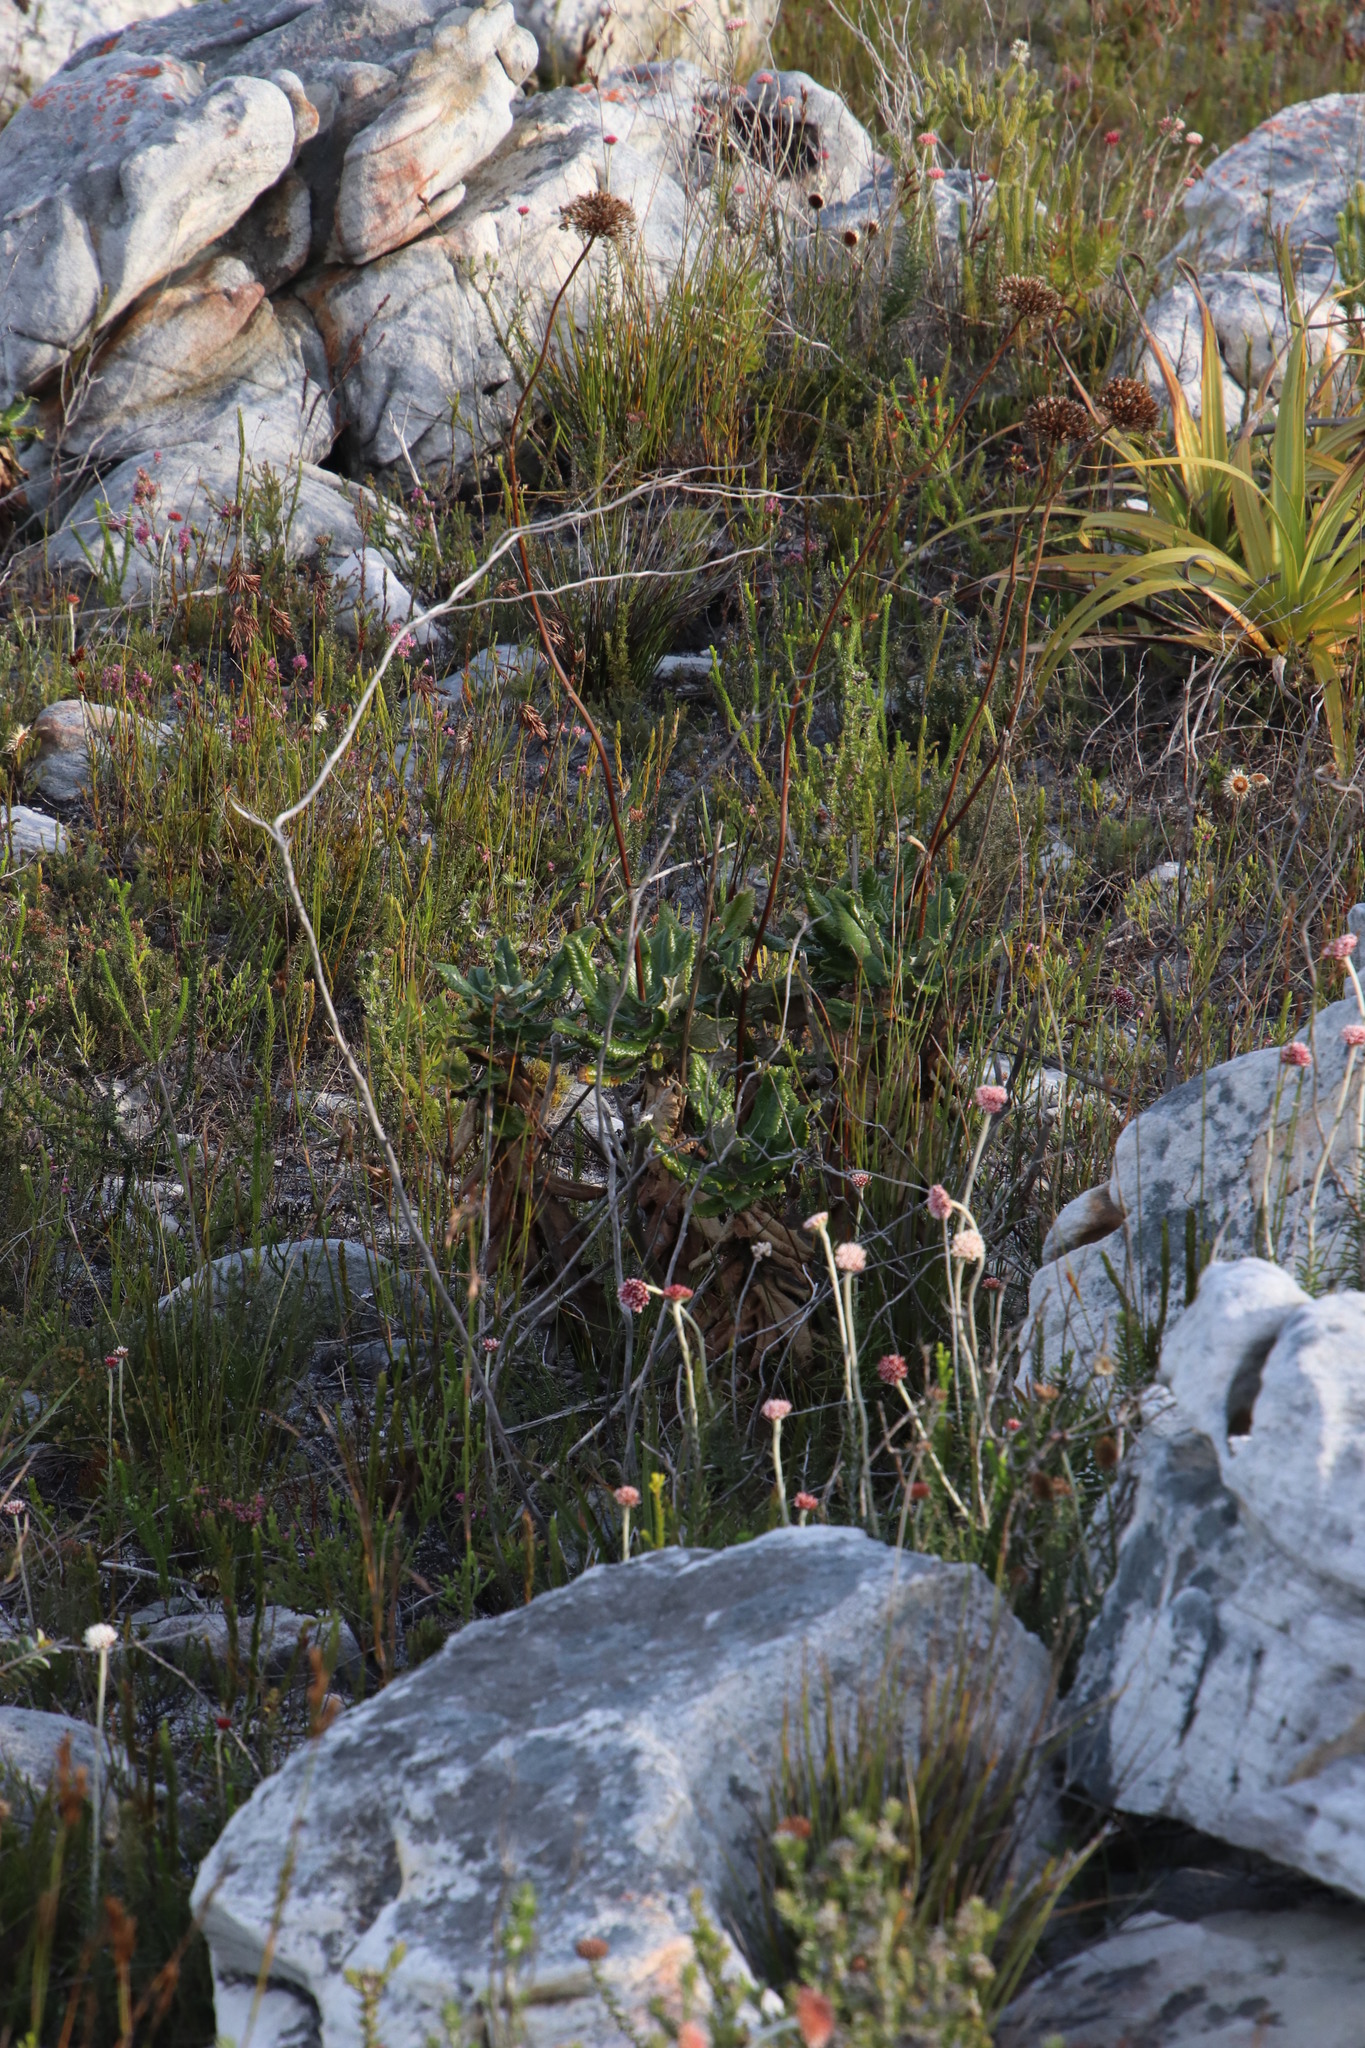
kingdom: Plantae
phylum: Tracheophyta
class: Magnoliopsida
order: Apiales
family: Apiaceae
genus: Hermas
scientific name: Hermas villosa
